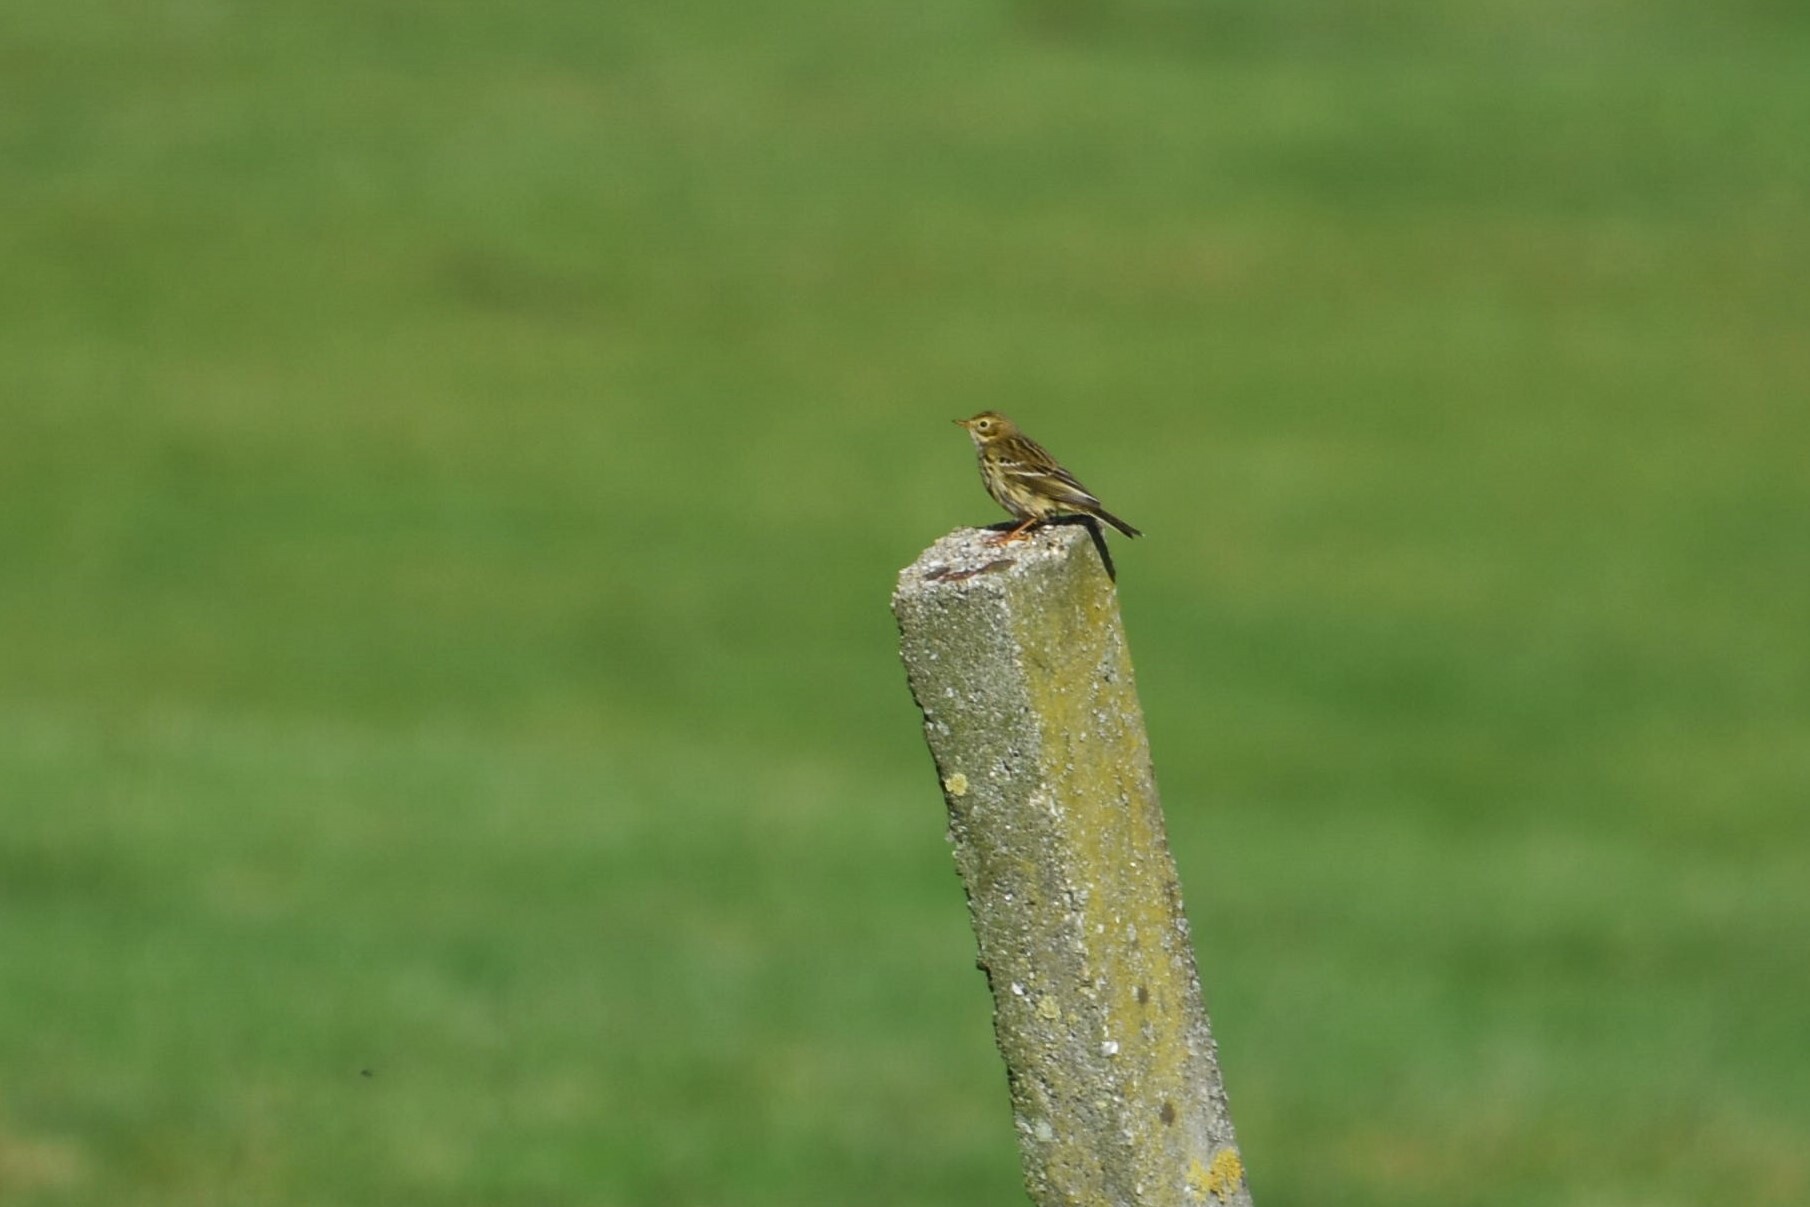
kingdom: Animalia
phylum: Chordata
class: Aves
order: Passeriformes
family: Motacillidae
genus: Anthus
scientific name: Anthus pratensis
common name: Meadow pipit
